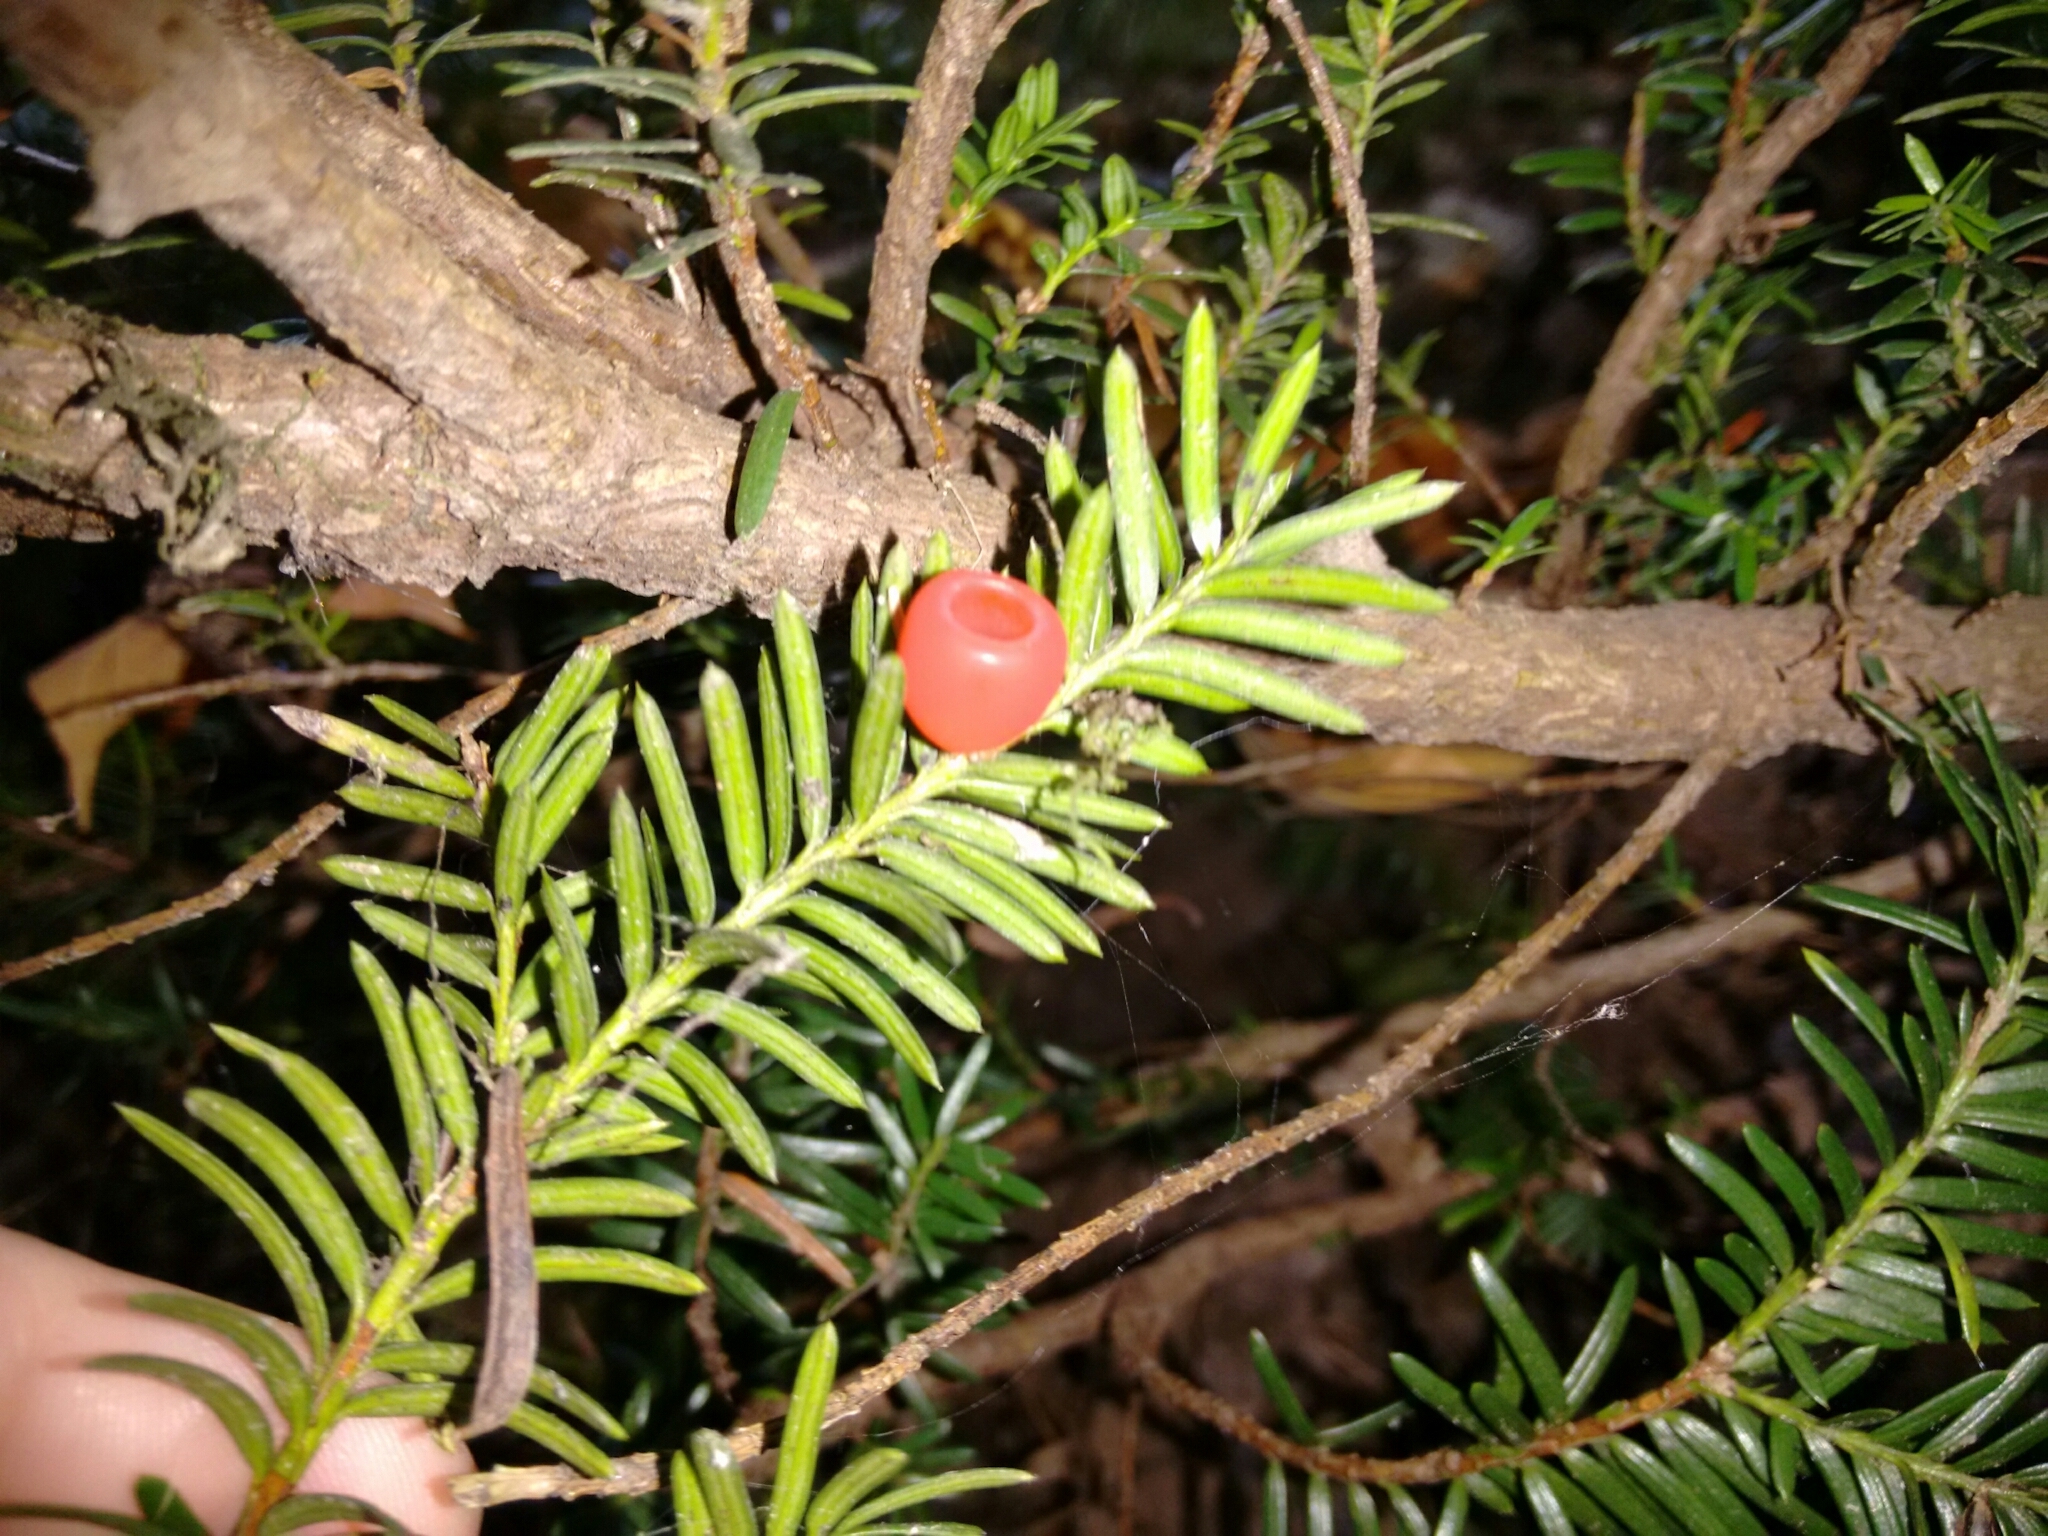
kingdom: Plantae
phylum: Tracheophyta
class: Pinopsida
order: Pinales
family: Taxaceae
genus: Taxus
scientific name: Taxus canadensis
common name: American yew
